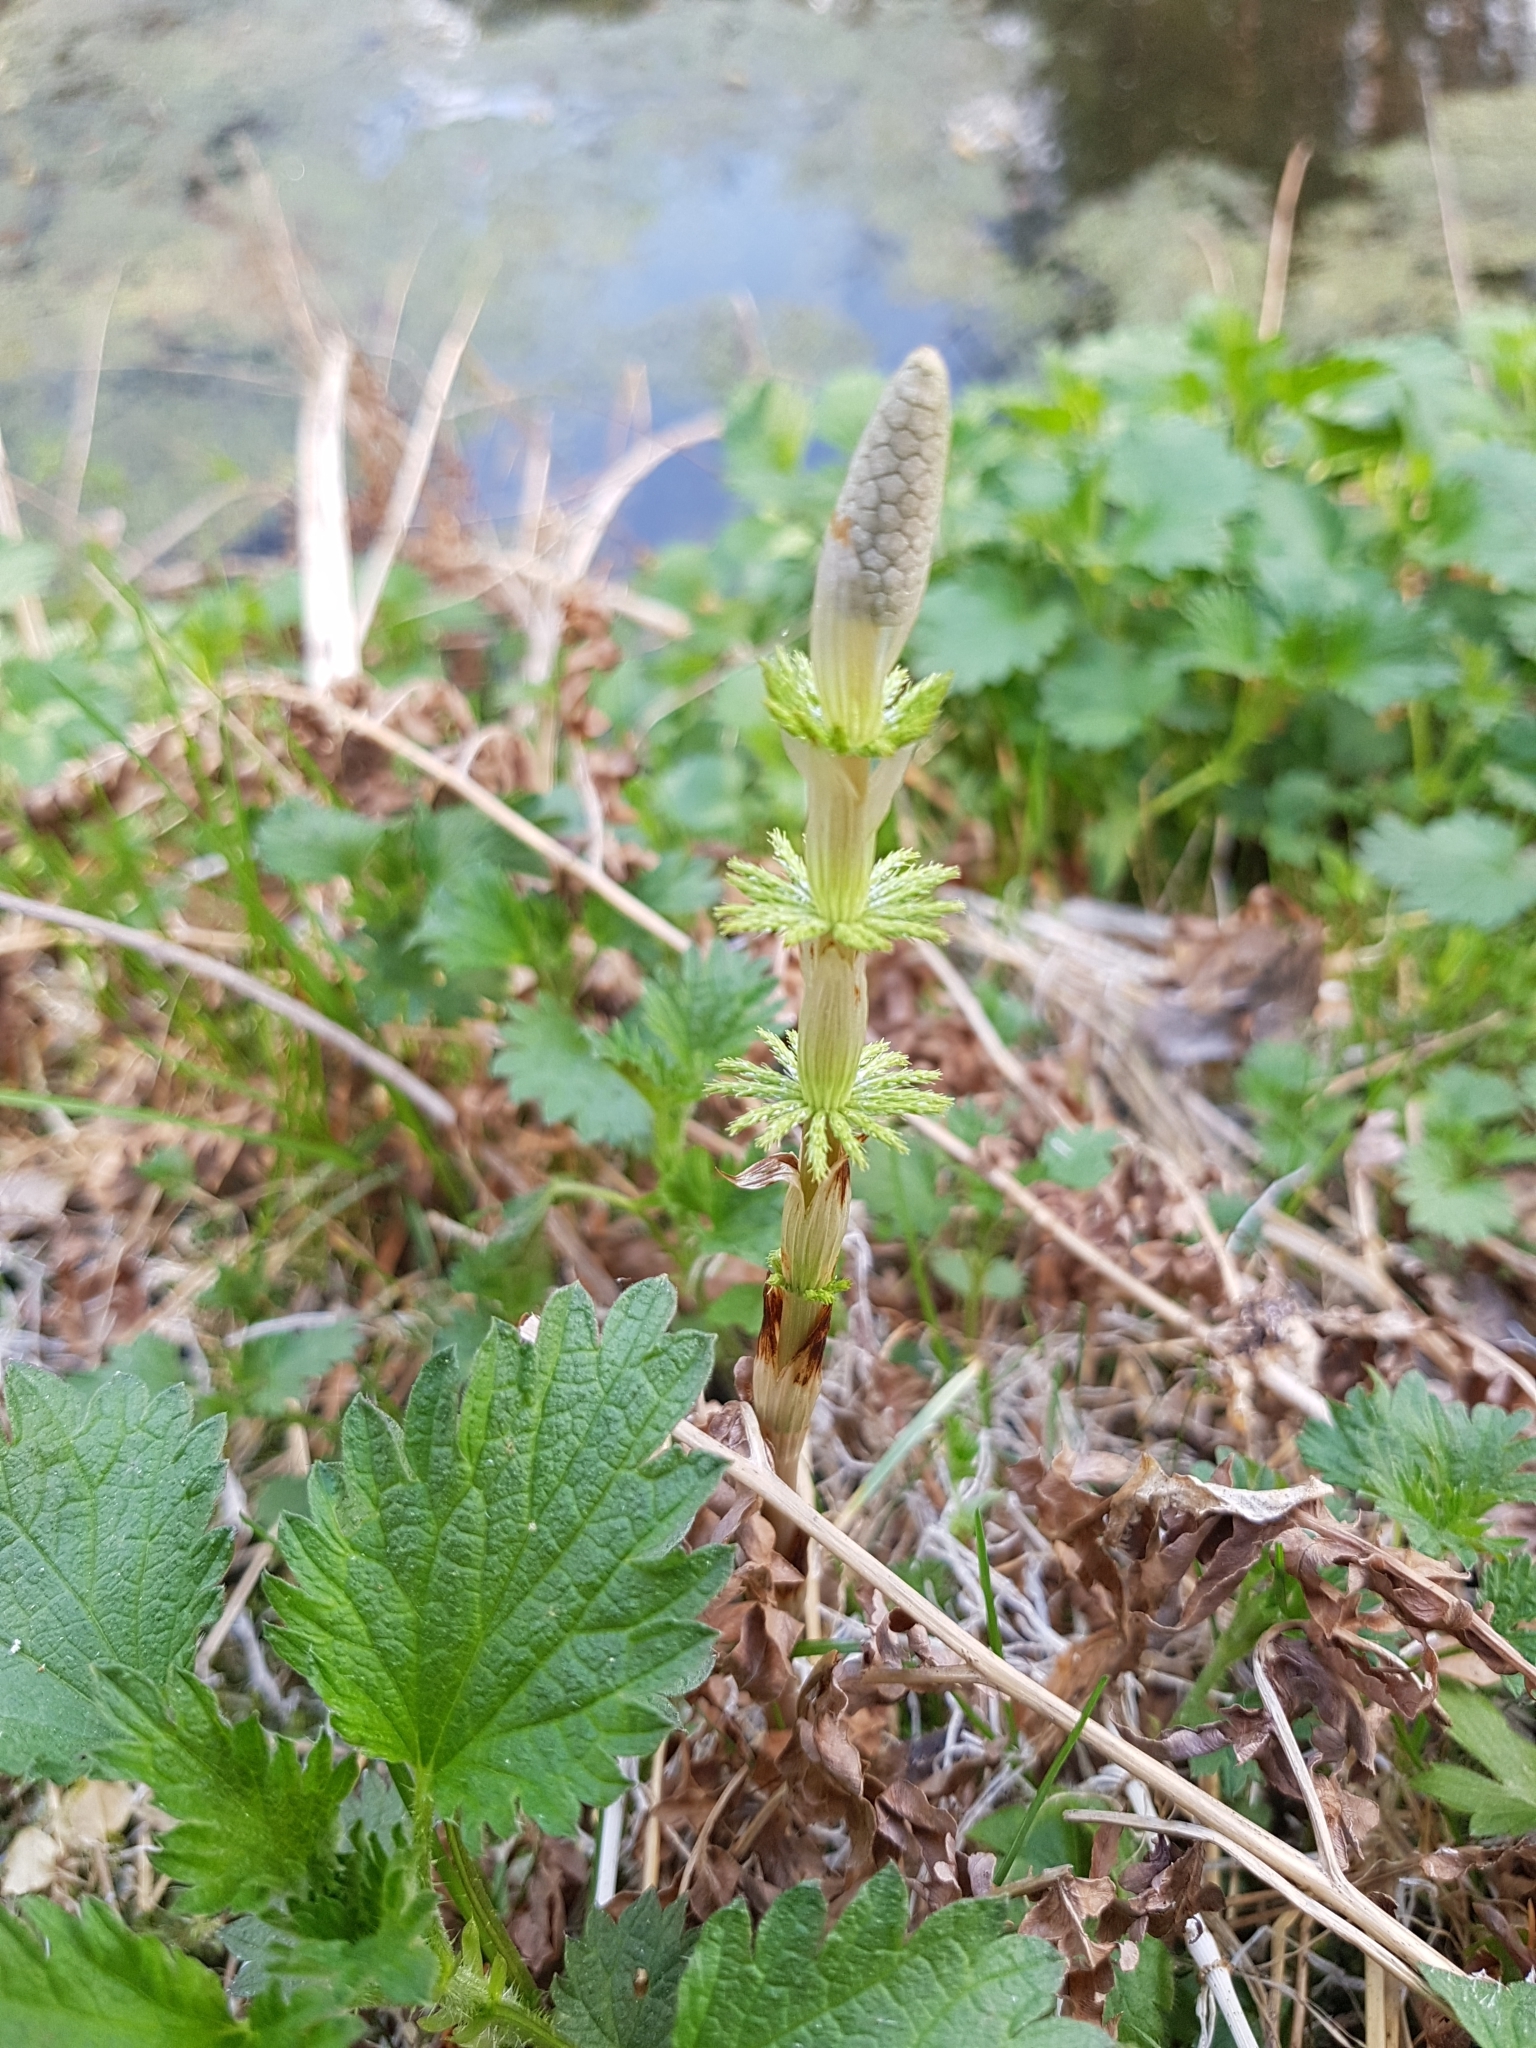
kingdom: Plantae
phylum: Tracheophyta
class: Polypodiopsida
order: Equisetales
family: Equisetaceae
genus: Equisetum
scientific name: Equisetum sylvaticum
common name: Wood horsetail
